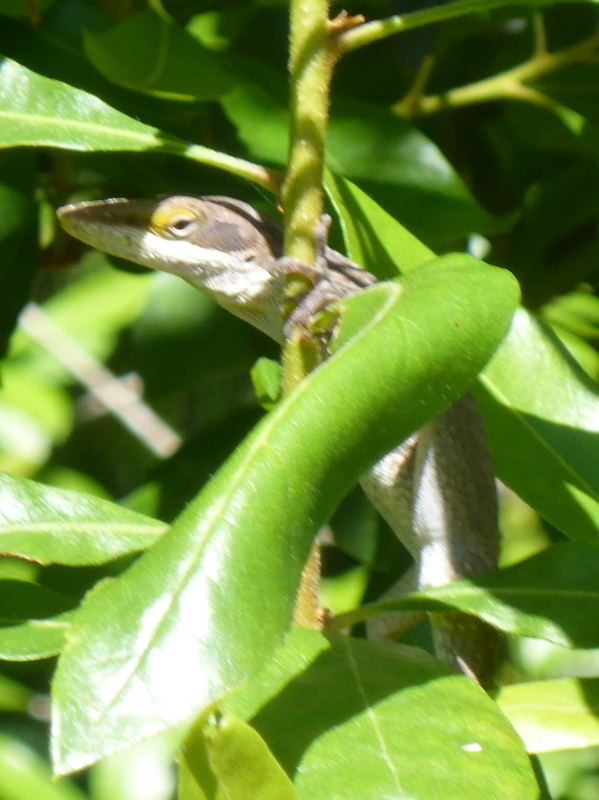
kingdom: Animalia
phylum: Chordata
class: Squamata
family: Dactyloidae
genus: Anolis
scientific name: Anolis carolinensis
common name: Green anole
